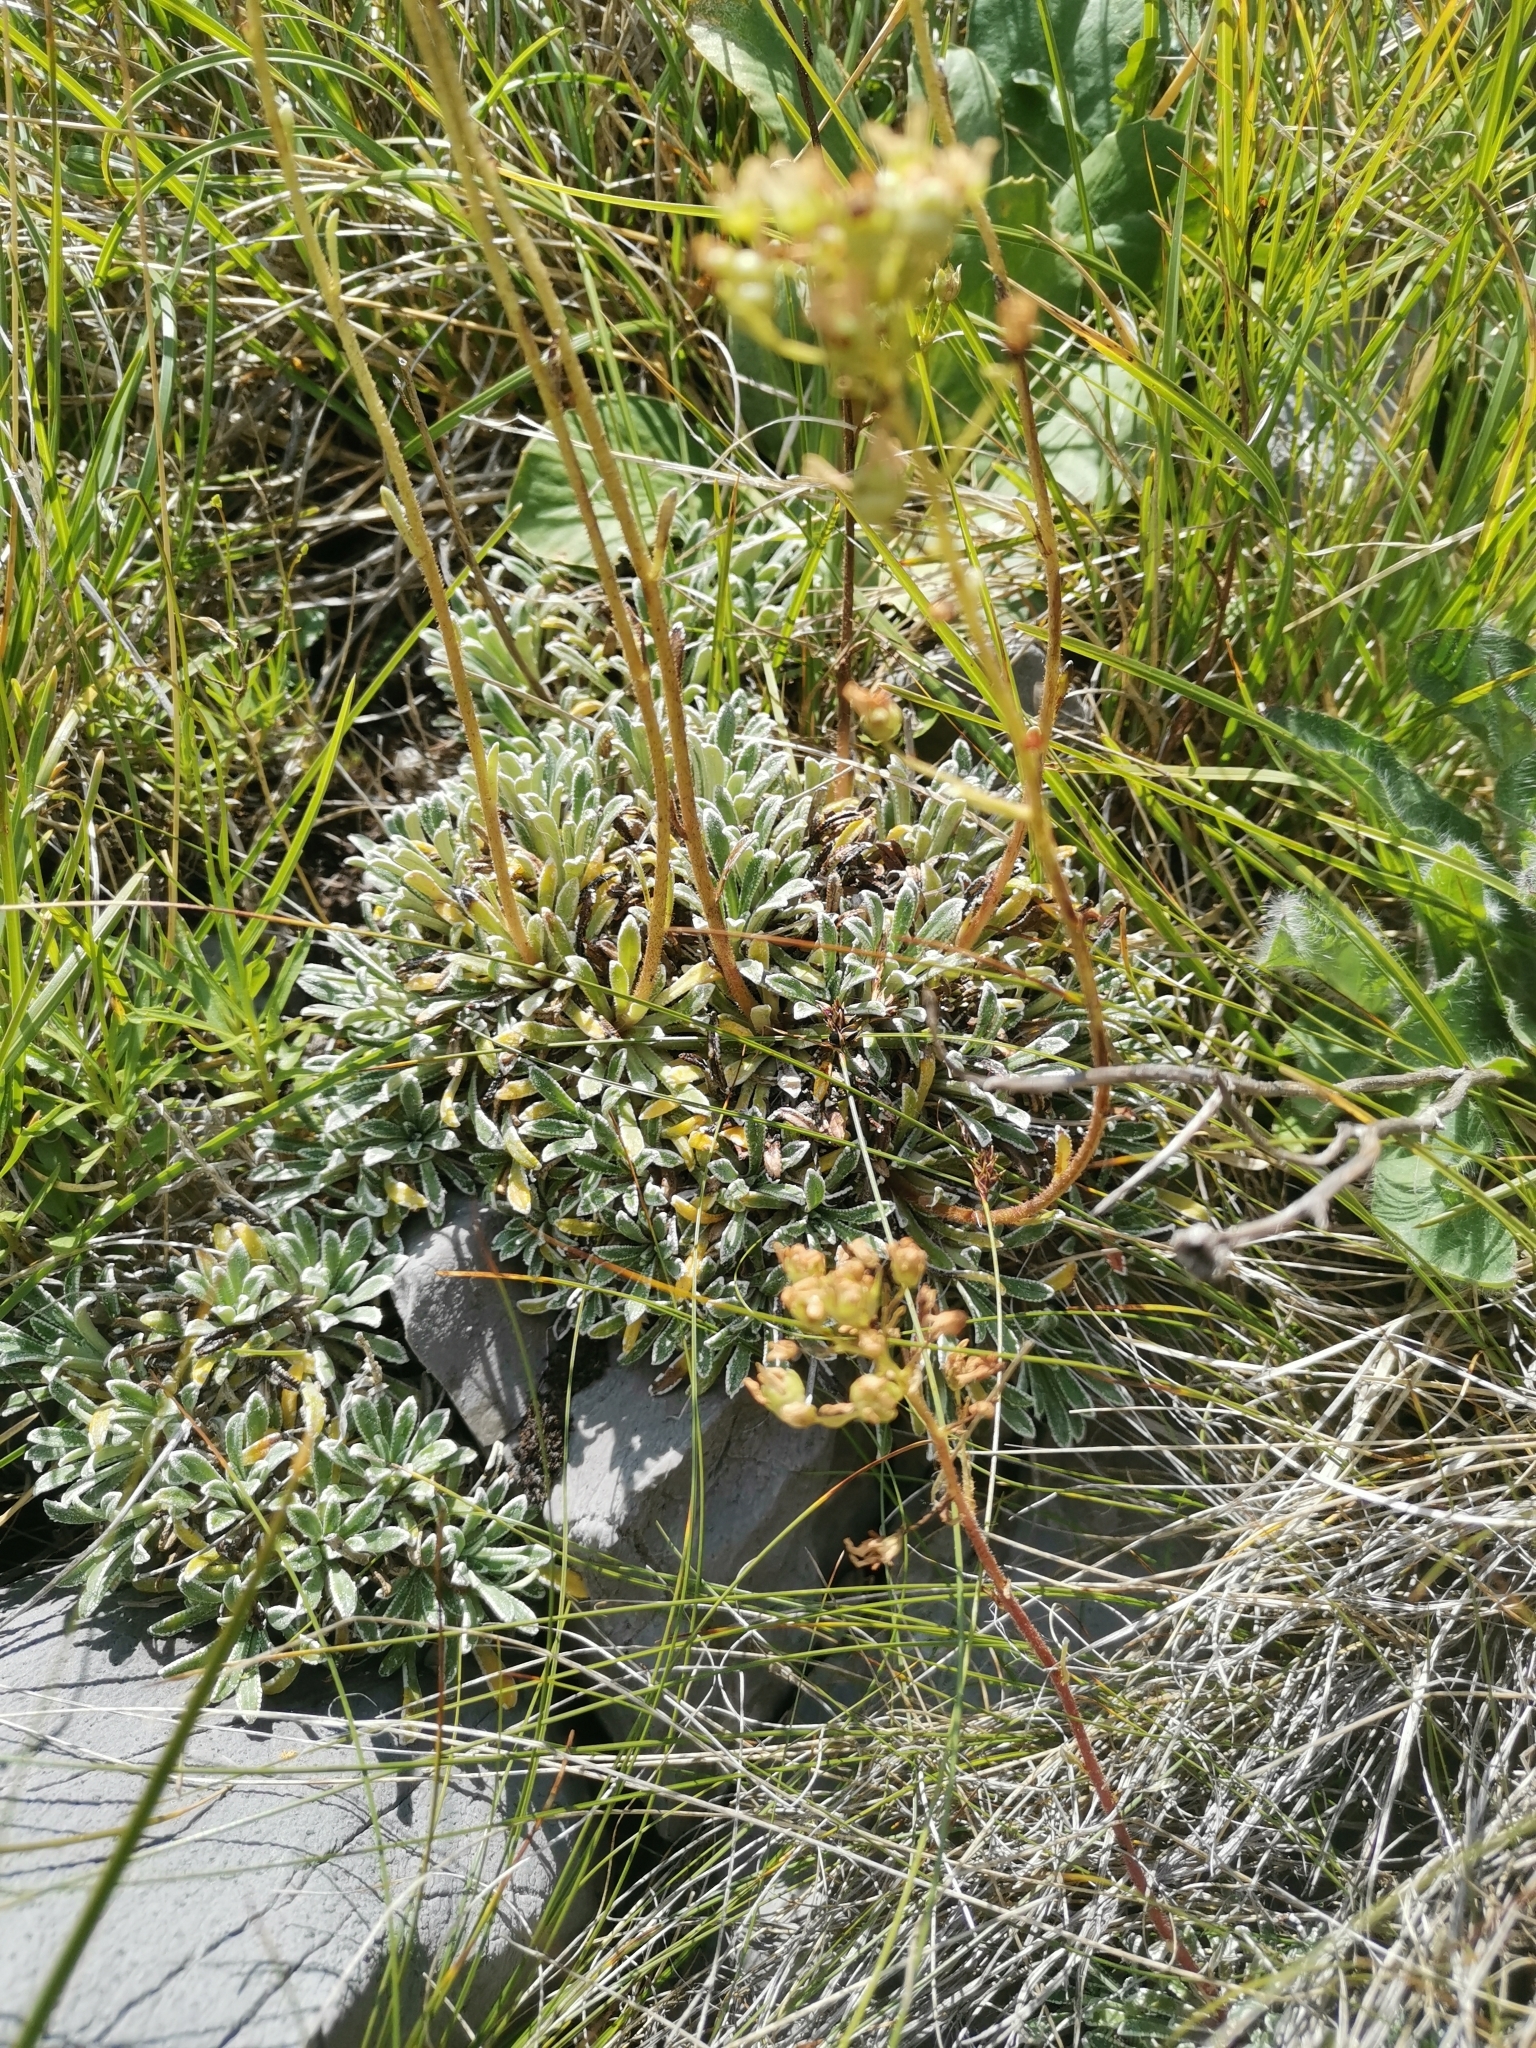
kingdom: Plantae
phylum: Tracheophyta
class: Magnoliopsida
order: Saxifragales
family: Saxifragaceae
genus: Saxifraga
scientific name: Saxifraga crustata
